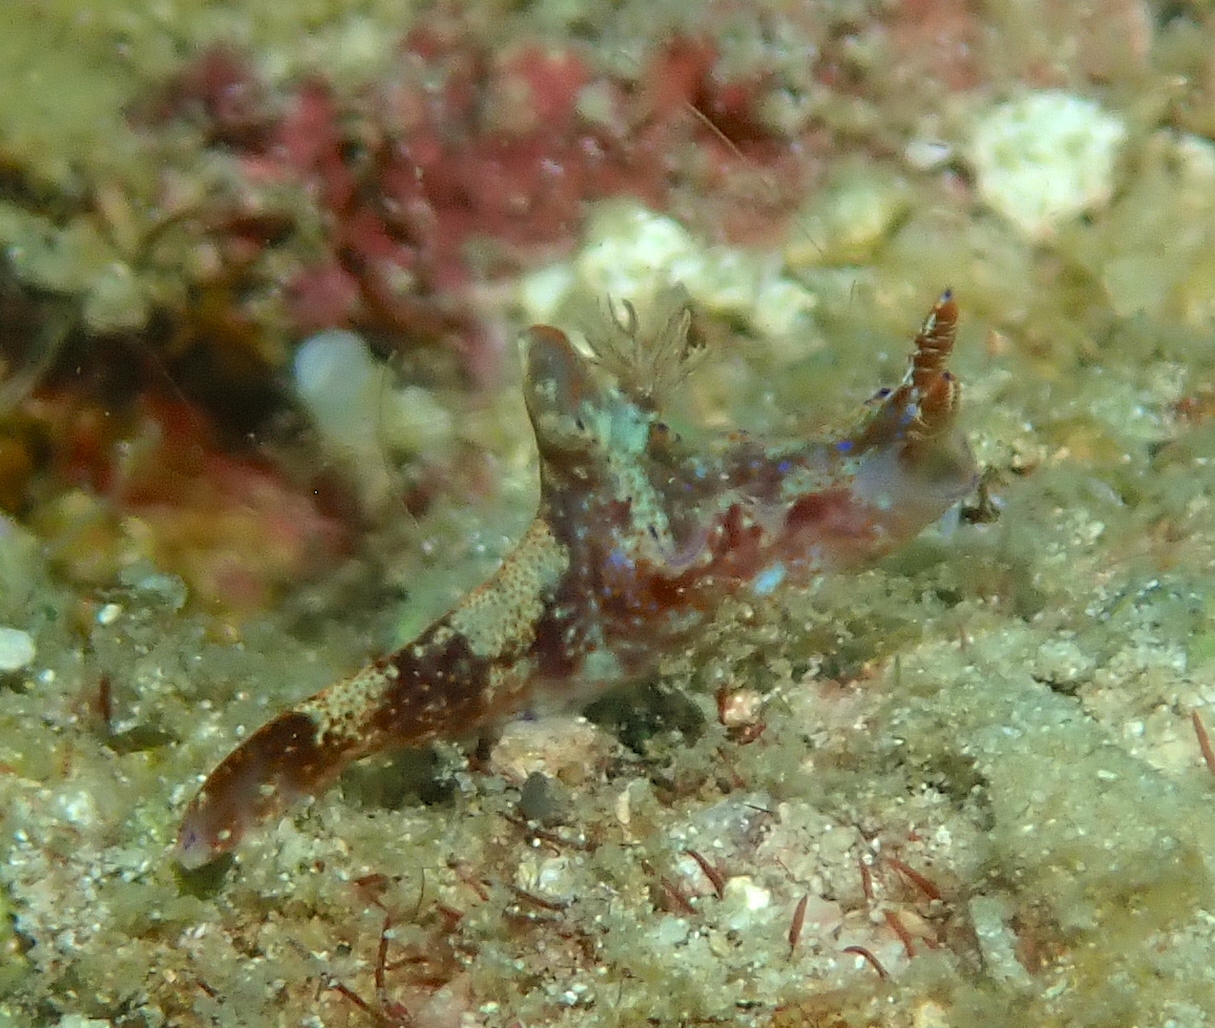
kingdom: Animalia
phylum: Mollusca
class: Gastropoda
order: Nudibranchia
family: Chromodorididae
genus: Ceratosoma
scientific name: Ceratosoma gracillimum
